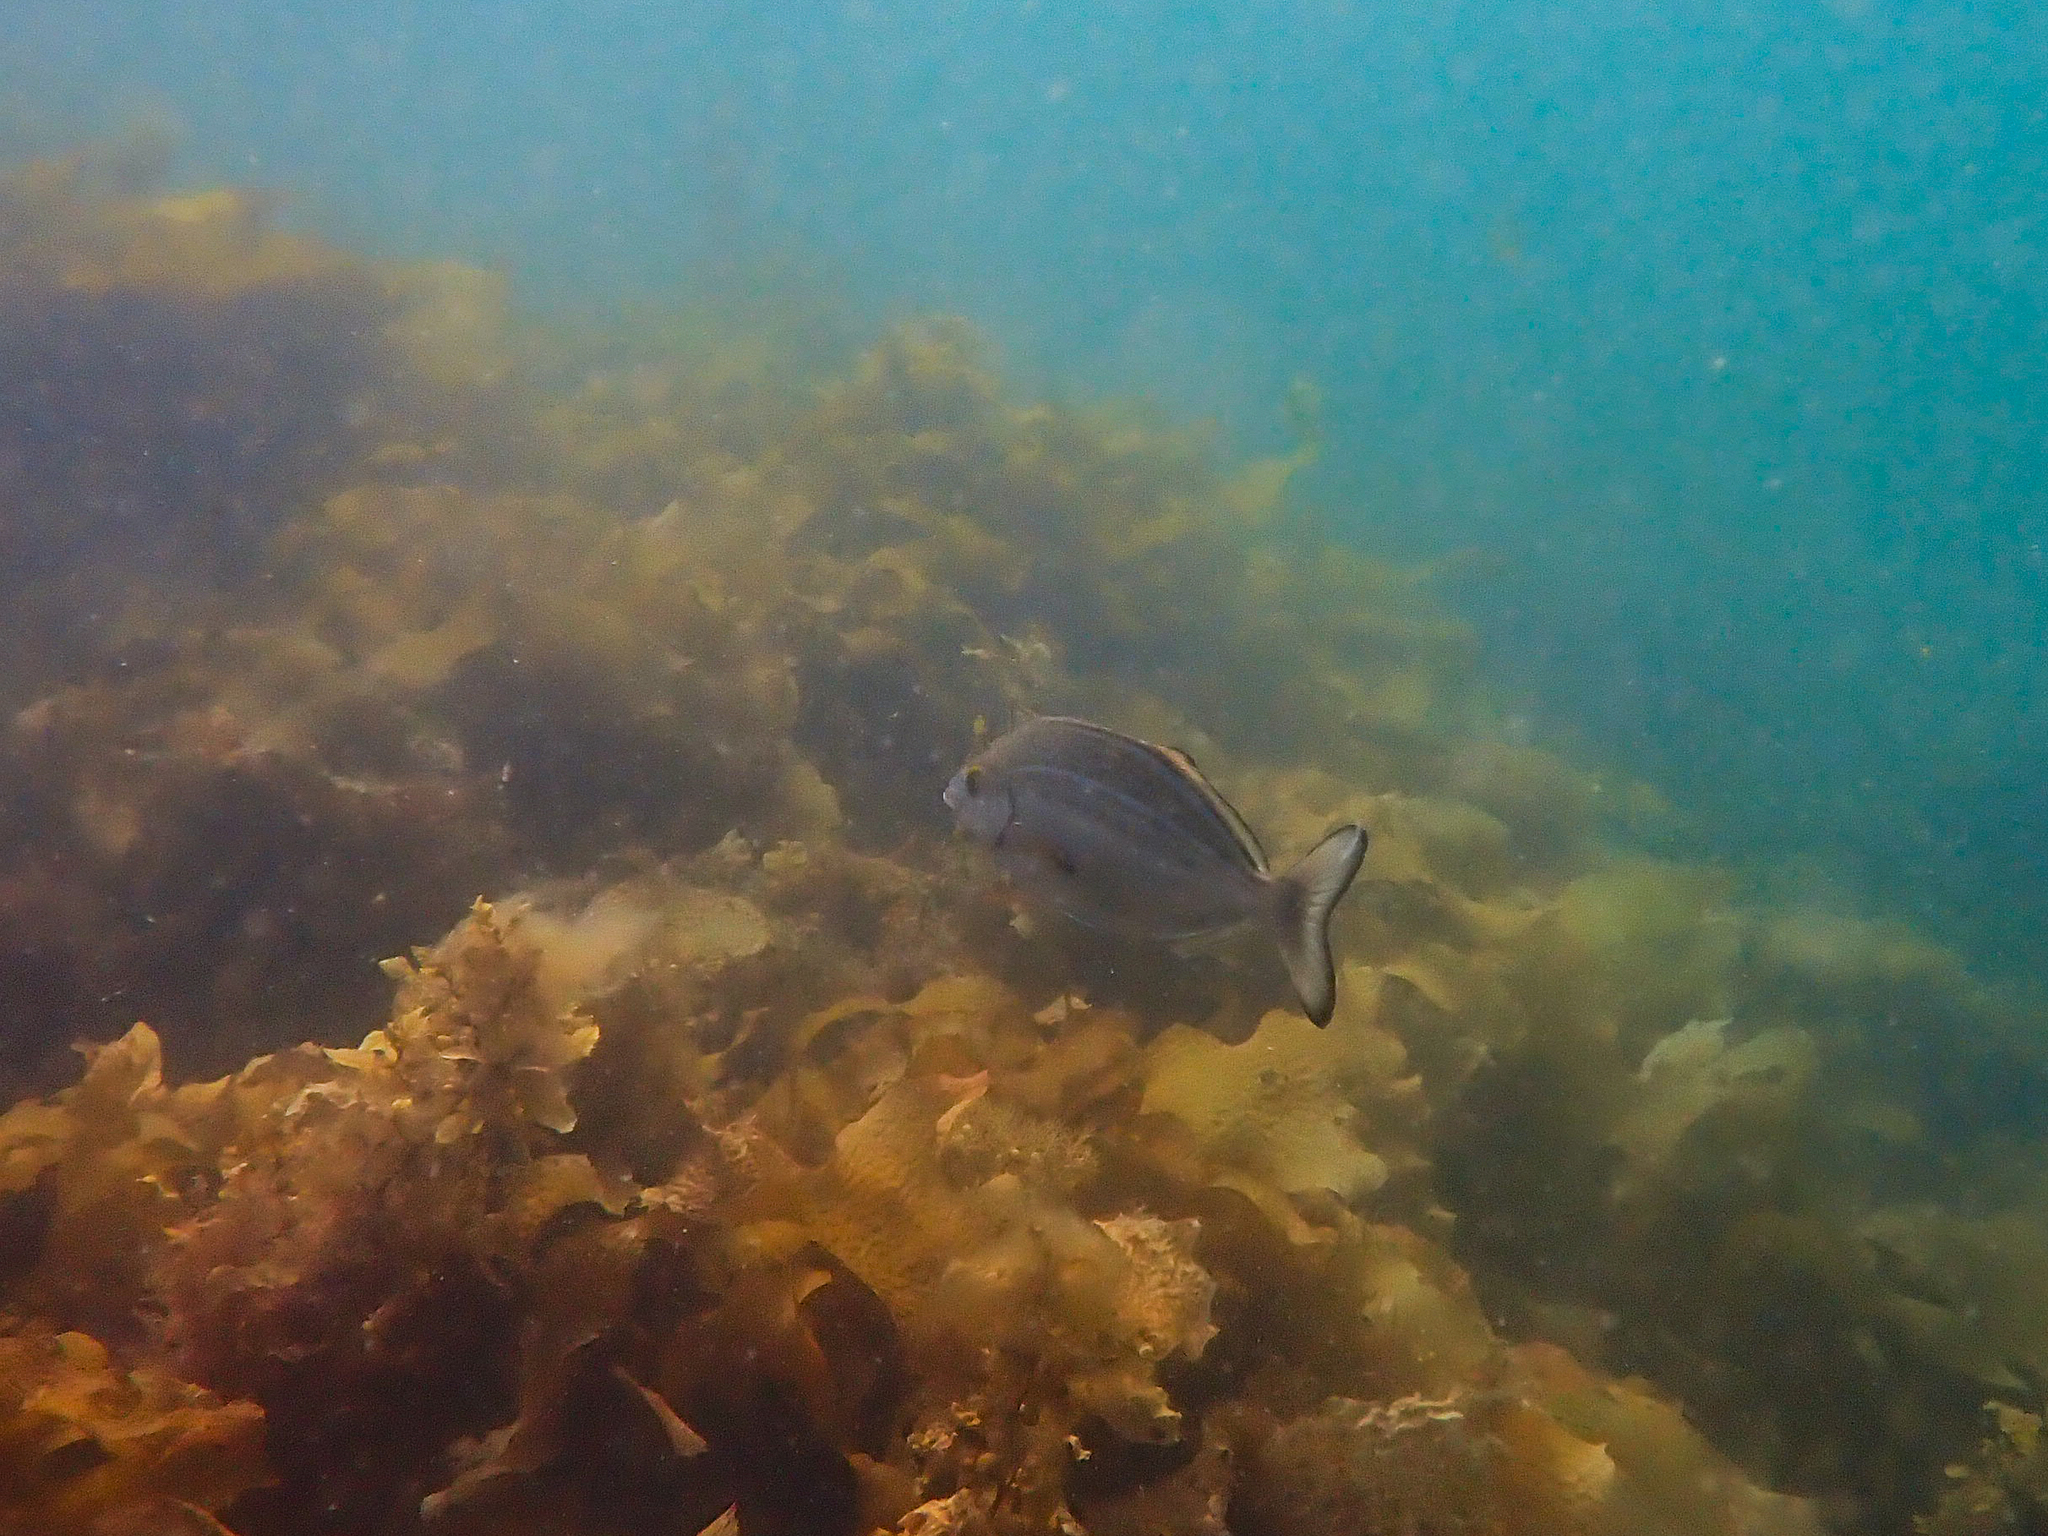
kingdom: Animalia
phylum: Chordata
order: Perciformes
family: Latridae
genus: Latridopsis
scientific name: Latridopsis forsteri
